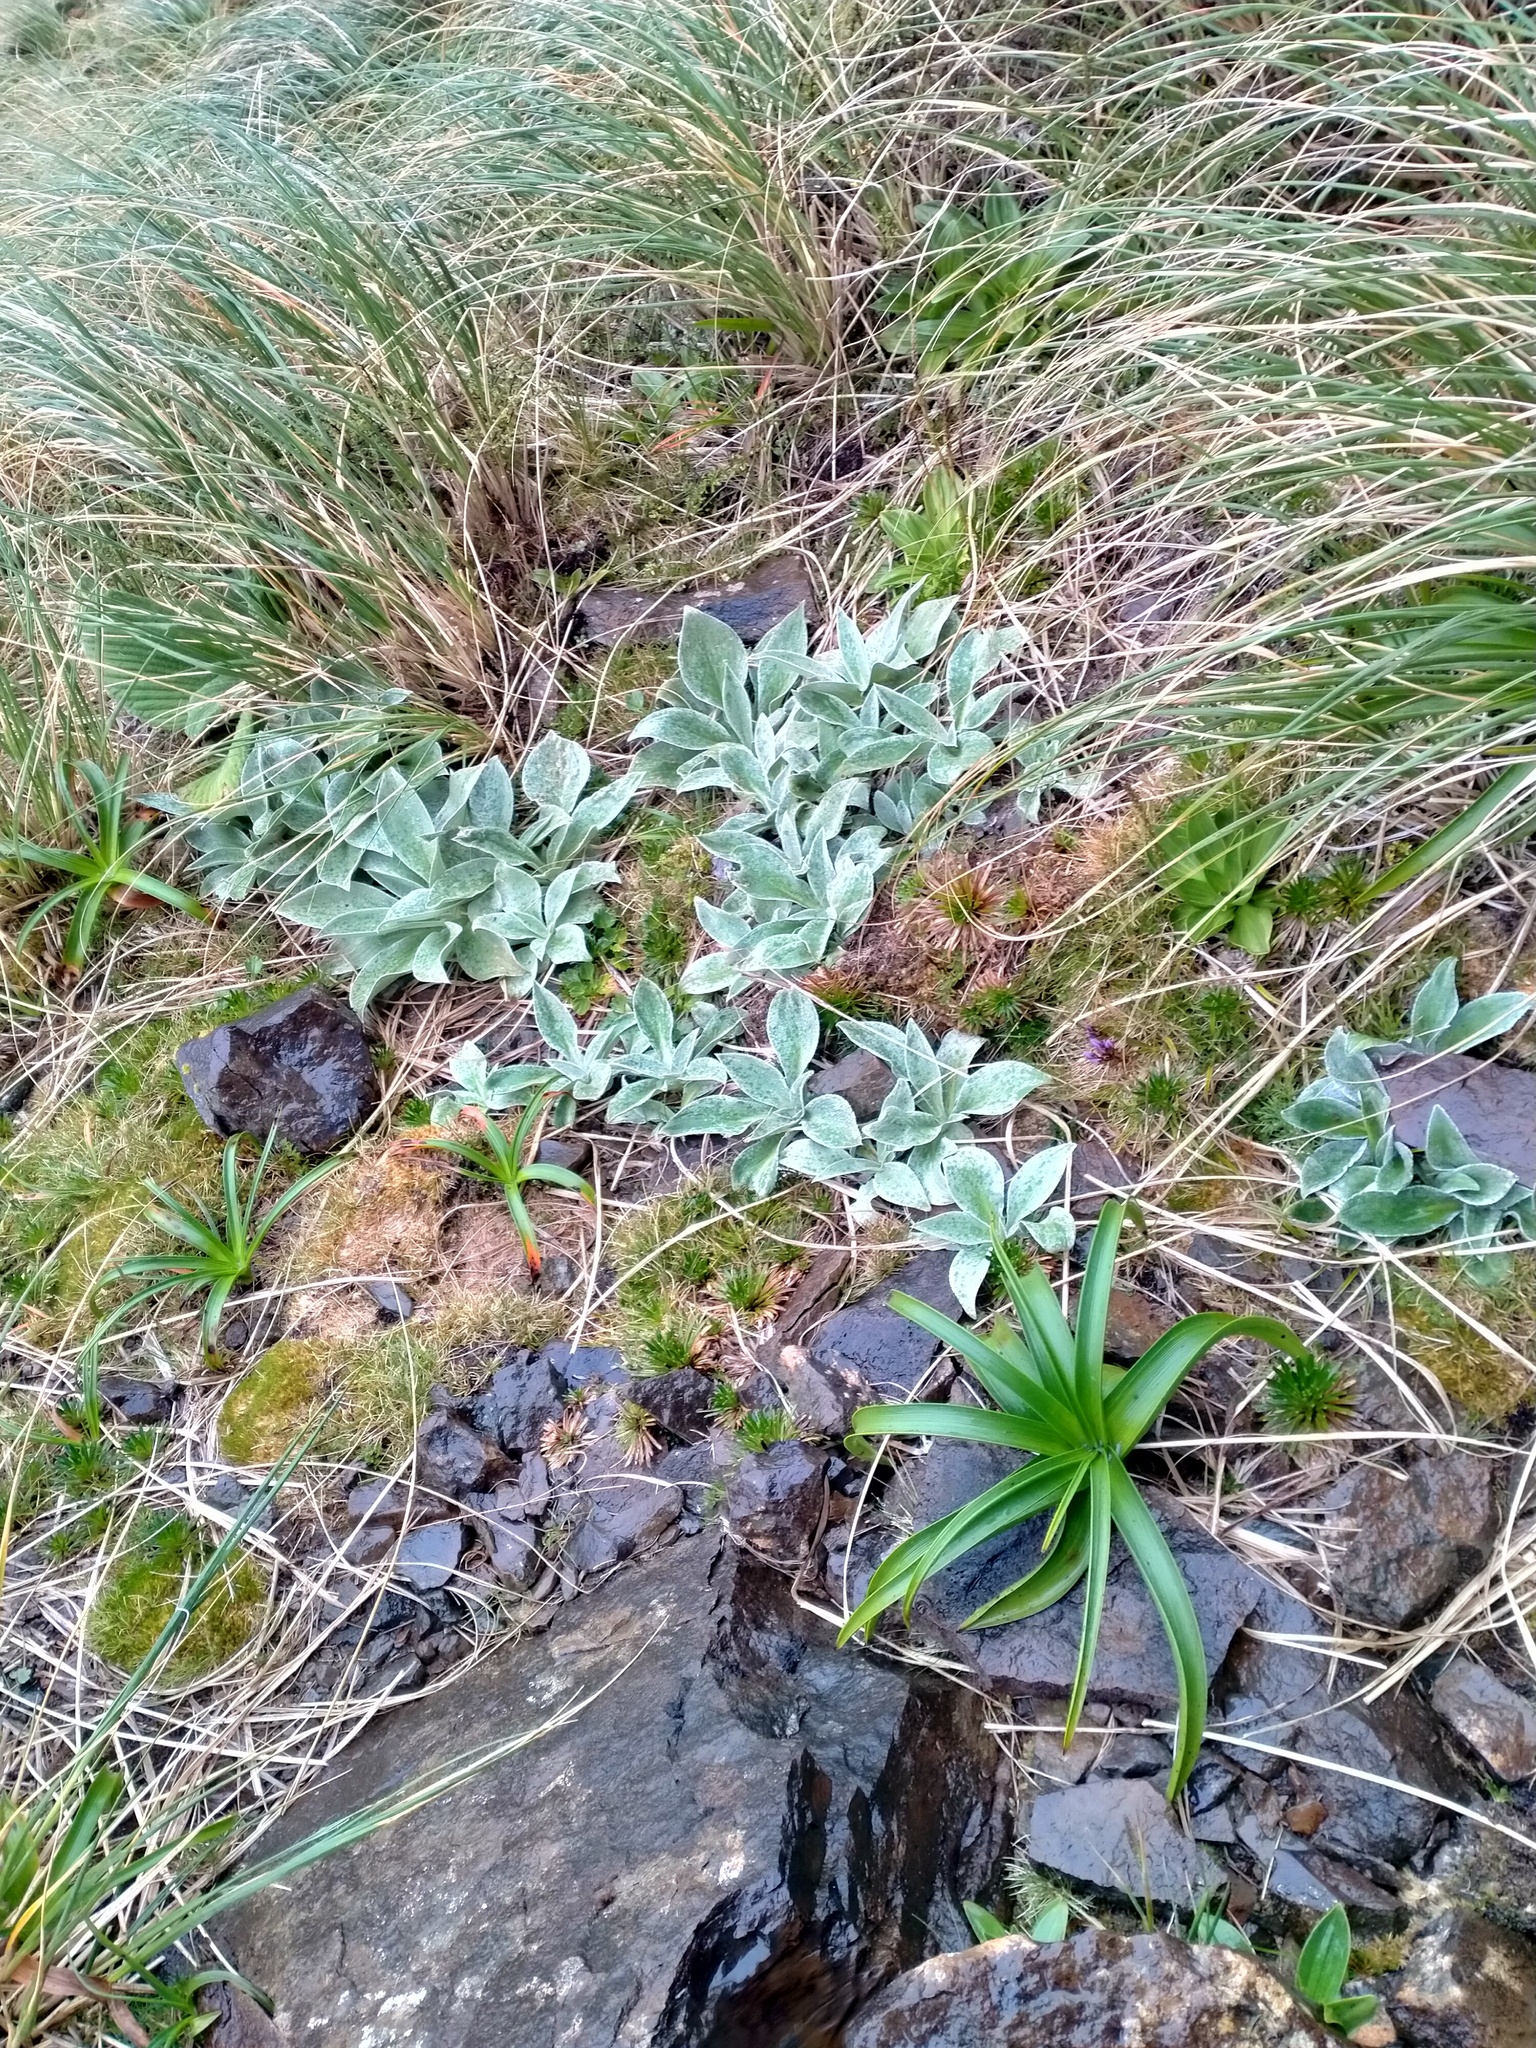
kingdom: Plantae
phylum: Tracheophyta
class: Liliopsida
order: Poales
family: Poaceae
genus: Chionochloa
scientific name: Chionochloa antarctica
